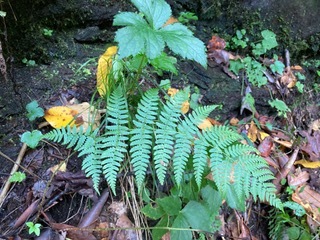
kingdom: Plantae
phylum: Tracheophyta
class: Polypodiopsida
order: Polypodiales
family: Dryopteridaceae
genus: Dryopteris
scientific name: Dryopteris marginalis
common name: Marginal wood fern
